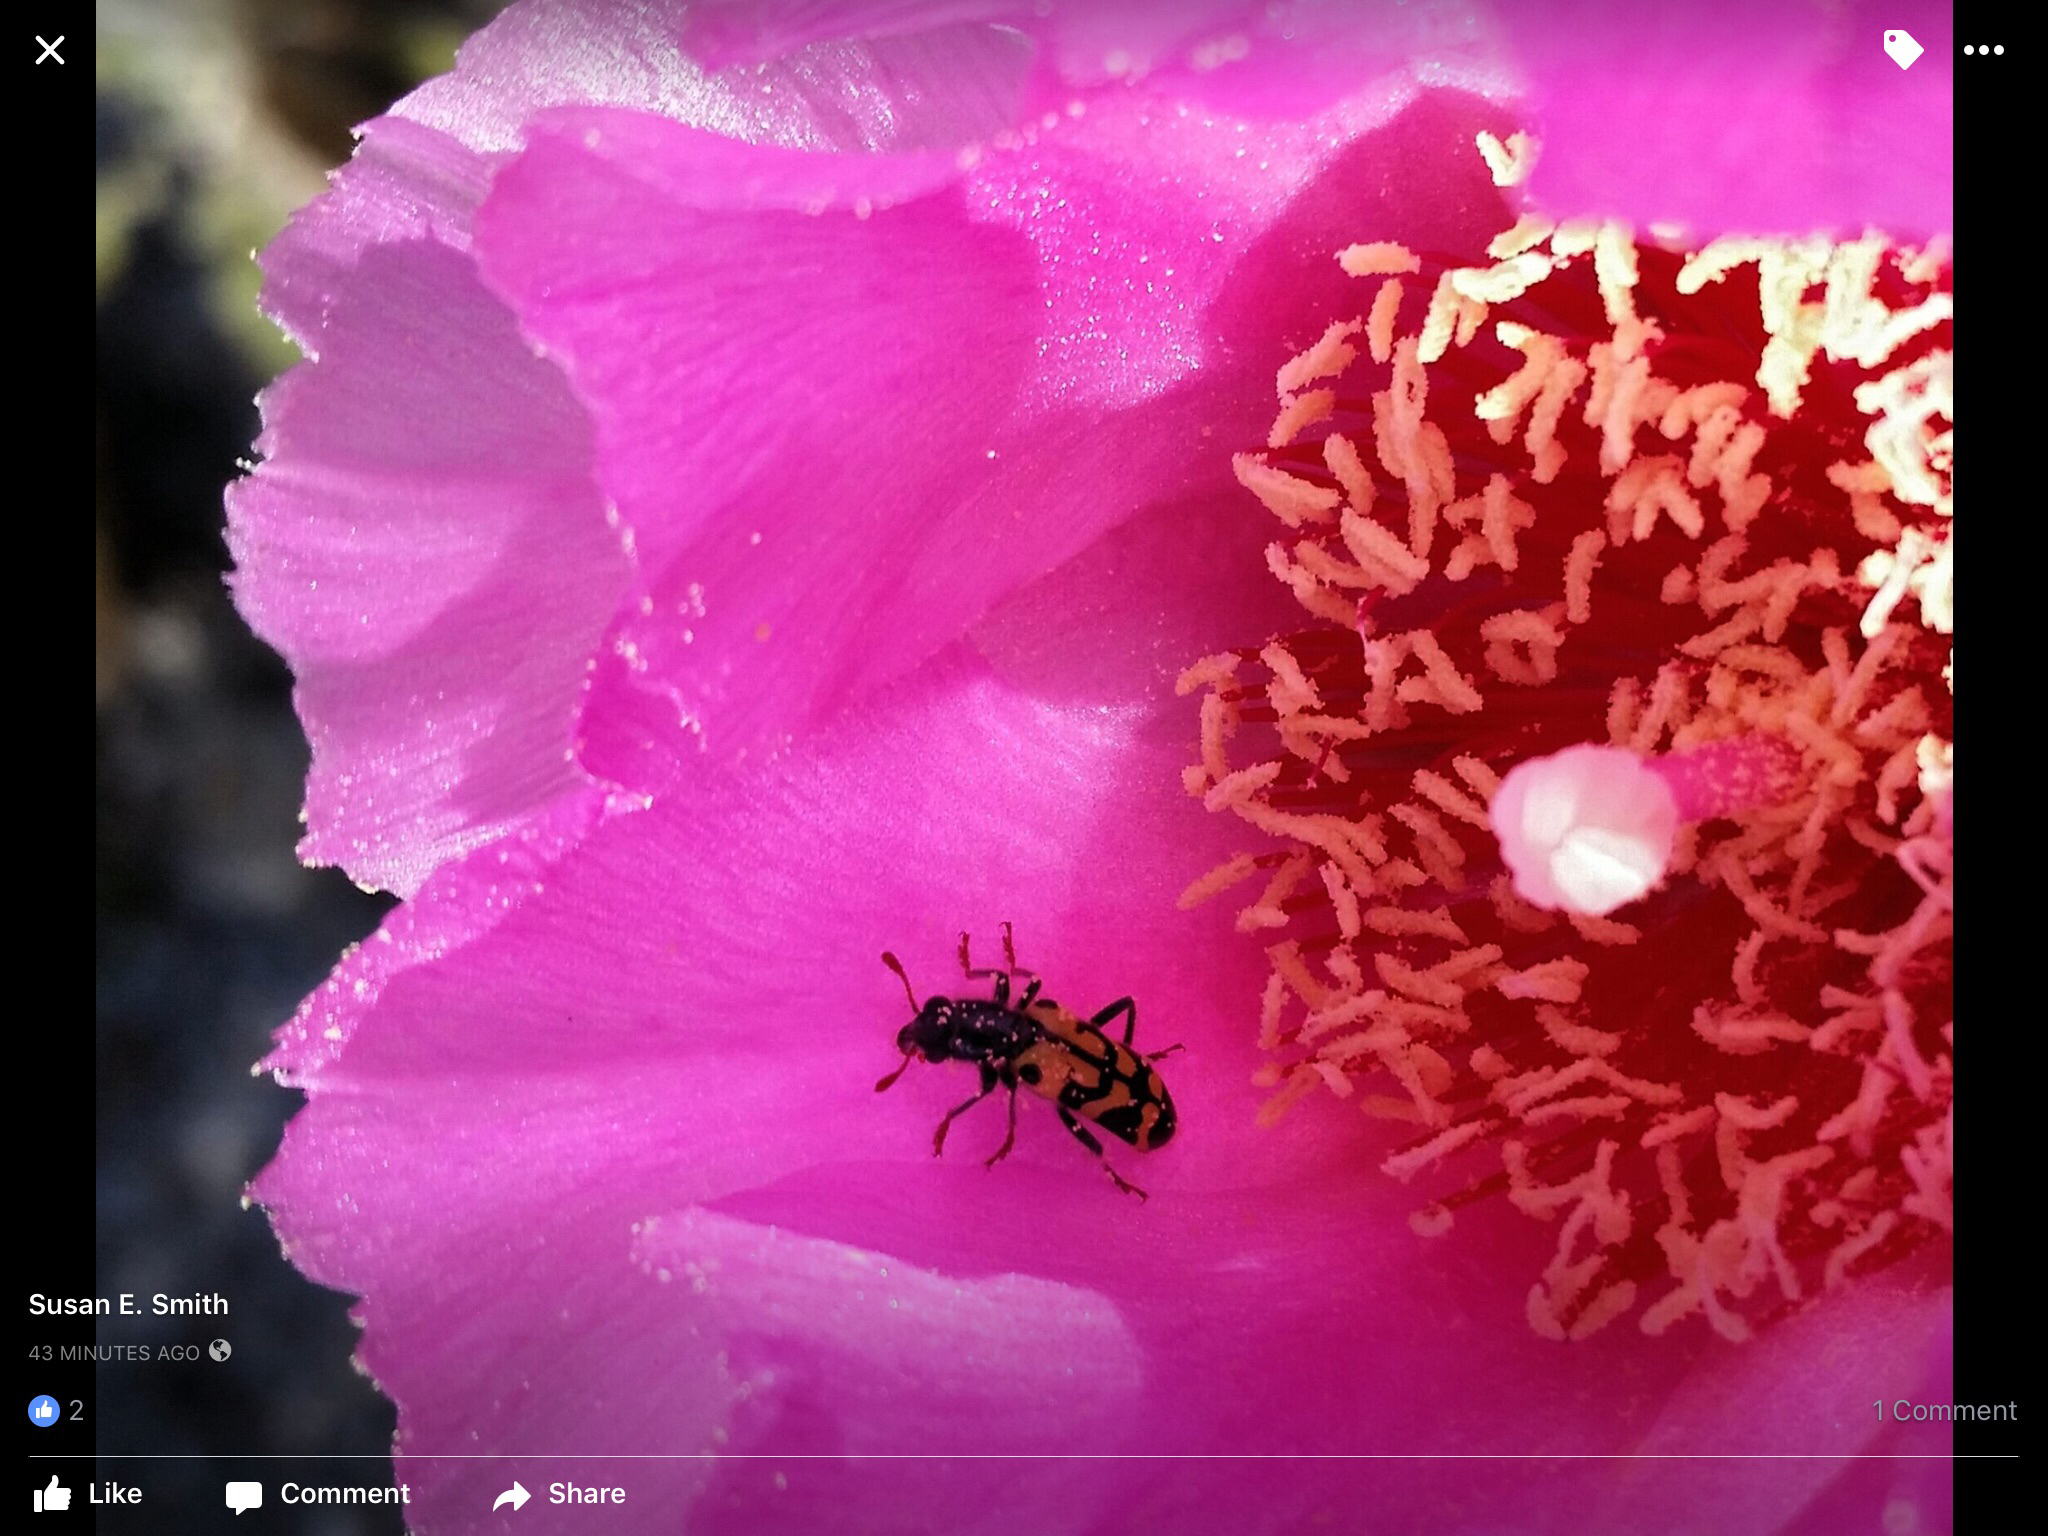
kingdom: Animalia
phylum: Arthropoda
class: Insecta
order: Coleoptera
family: Cleridae
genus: Trichodes
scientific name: Trichodes ornatus
